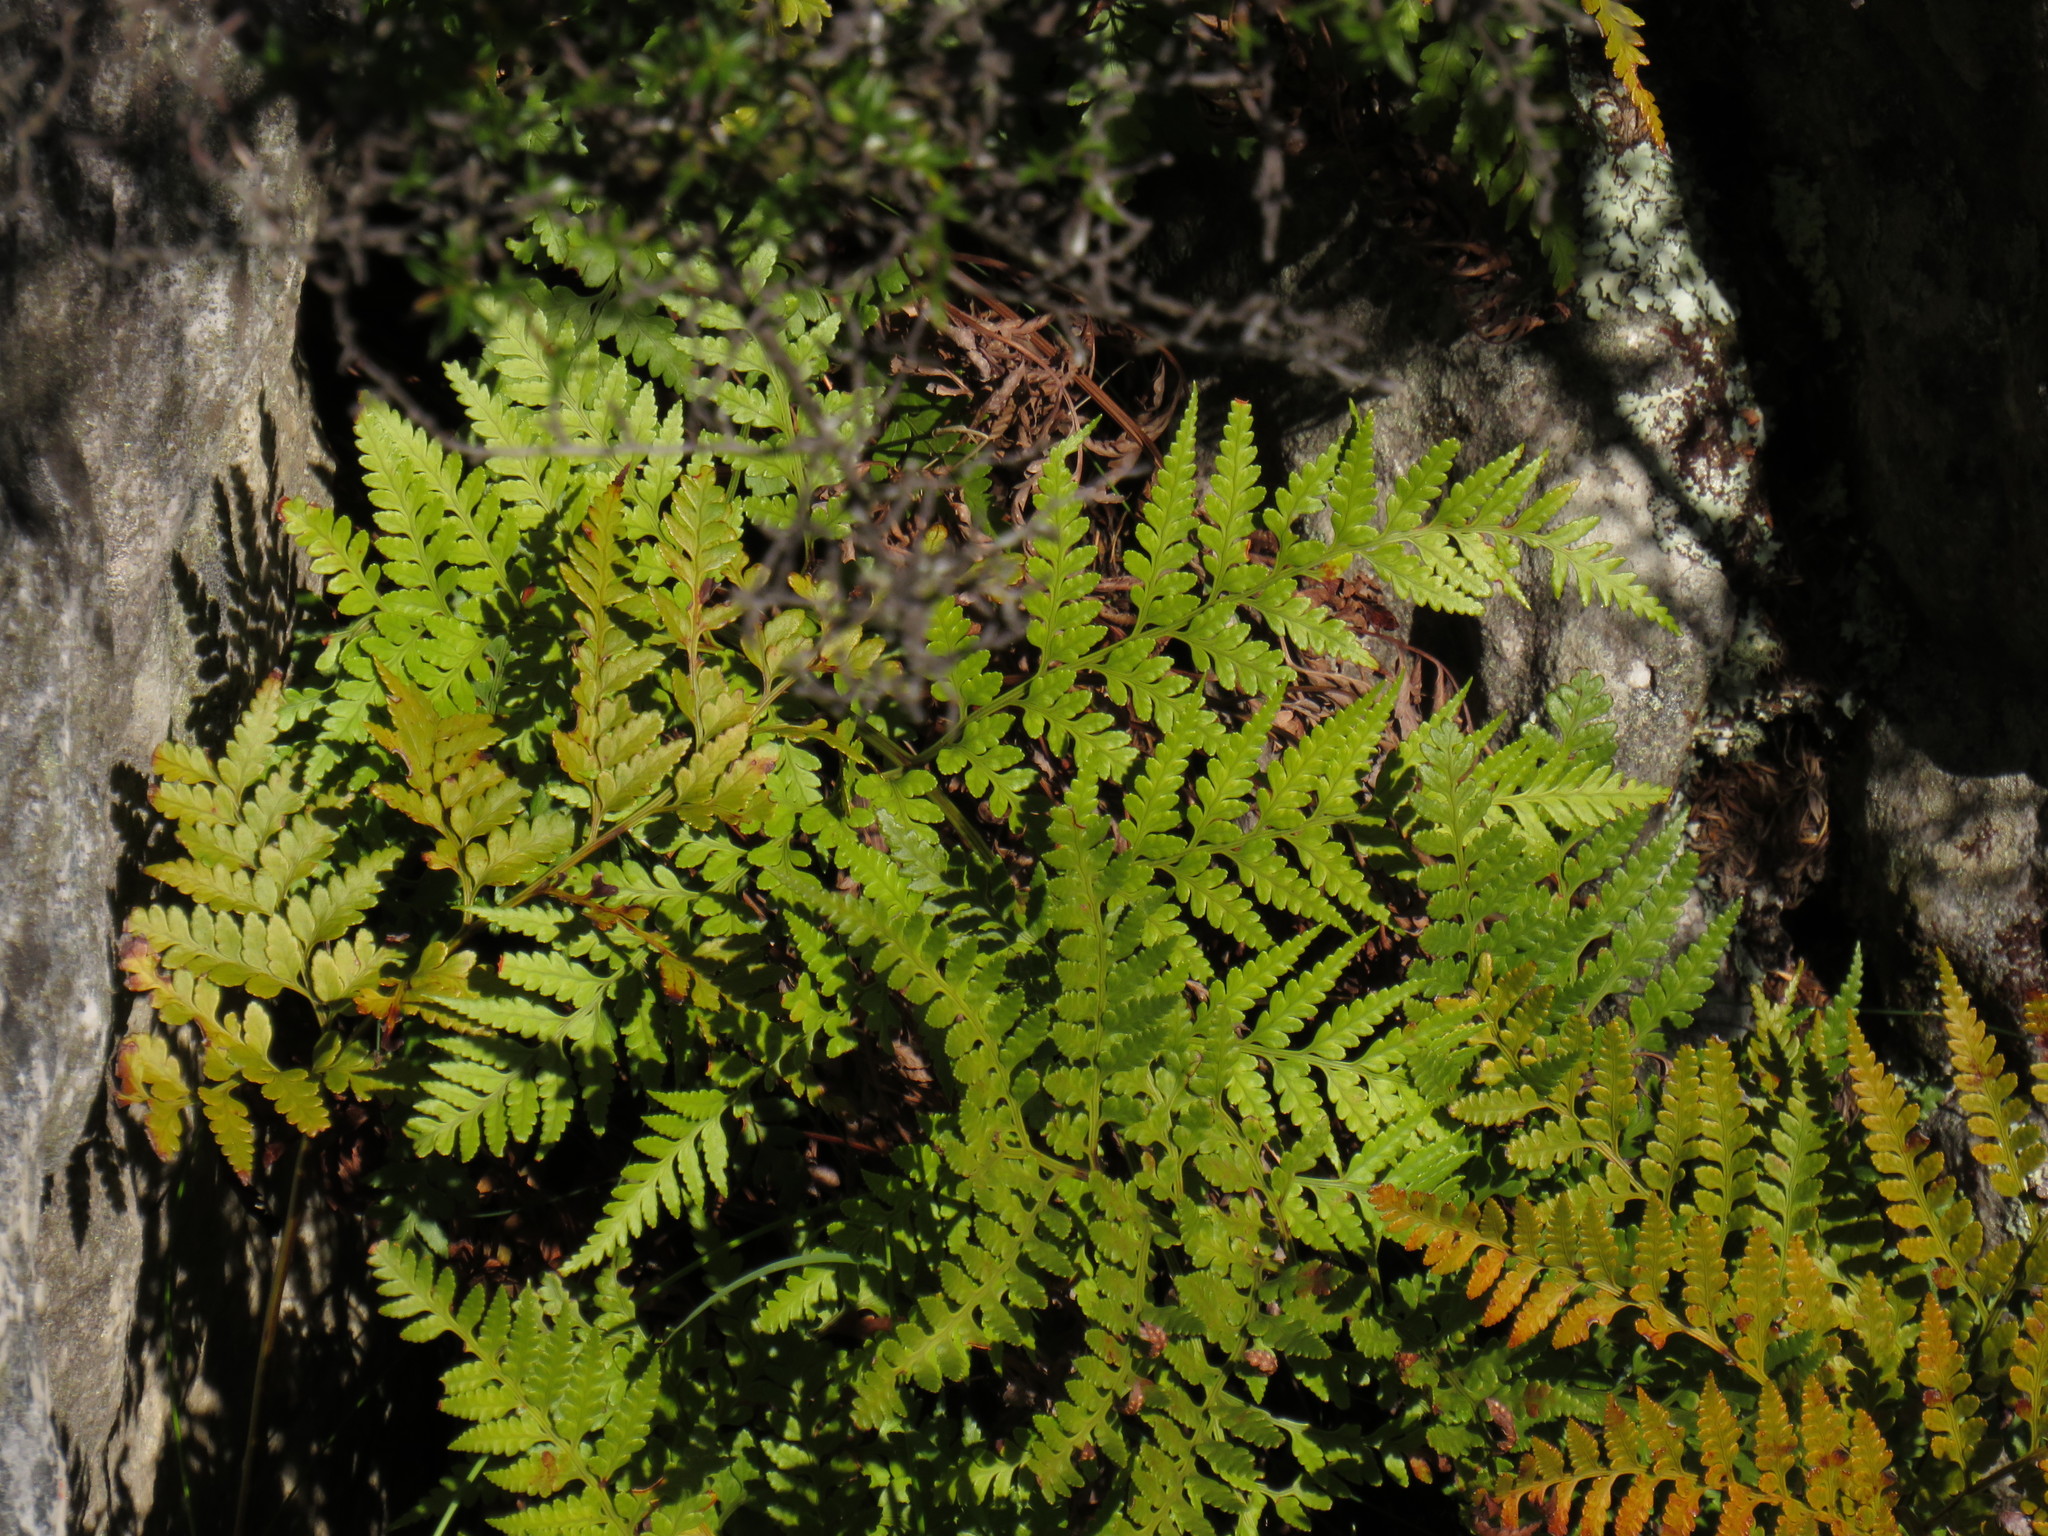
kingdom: Plantae
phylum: Tracheophyta
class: Polypodiopsida
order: Polypodiales
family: Dryopteridaceae
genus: Rumohra
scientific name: Rumohra adiantiformis
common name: Leather fern
